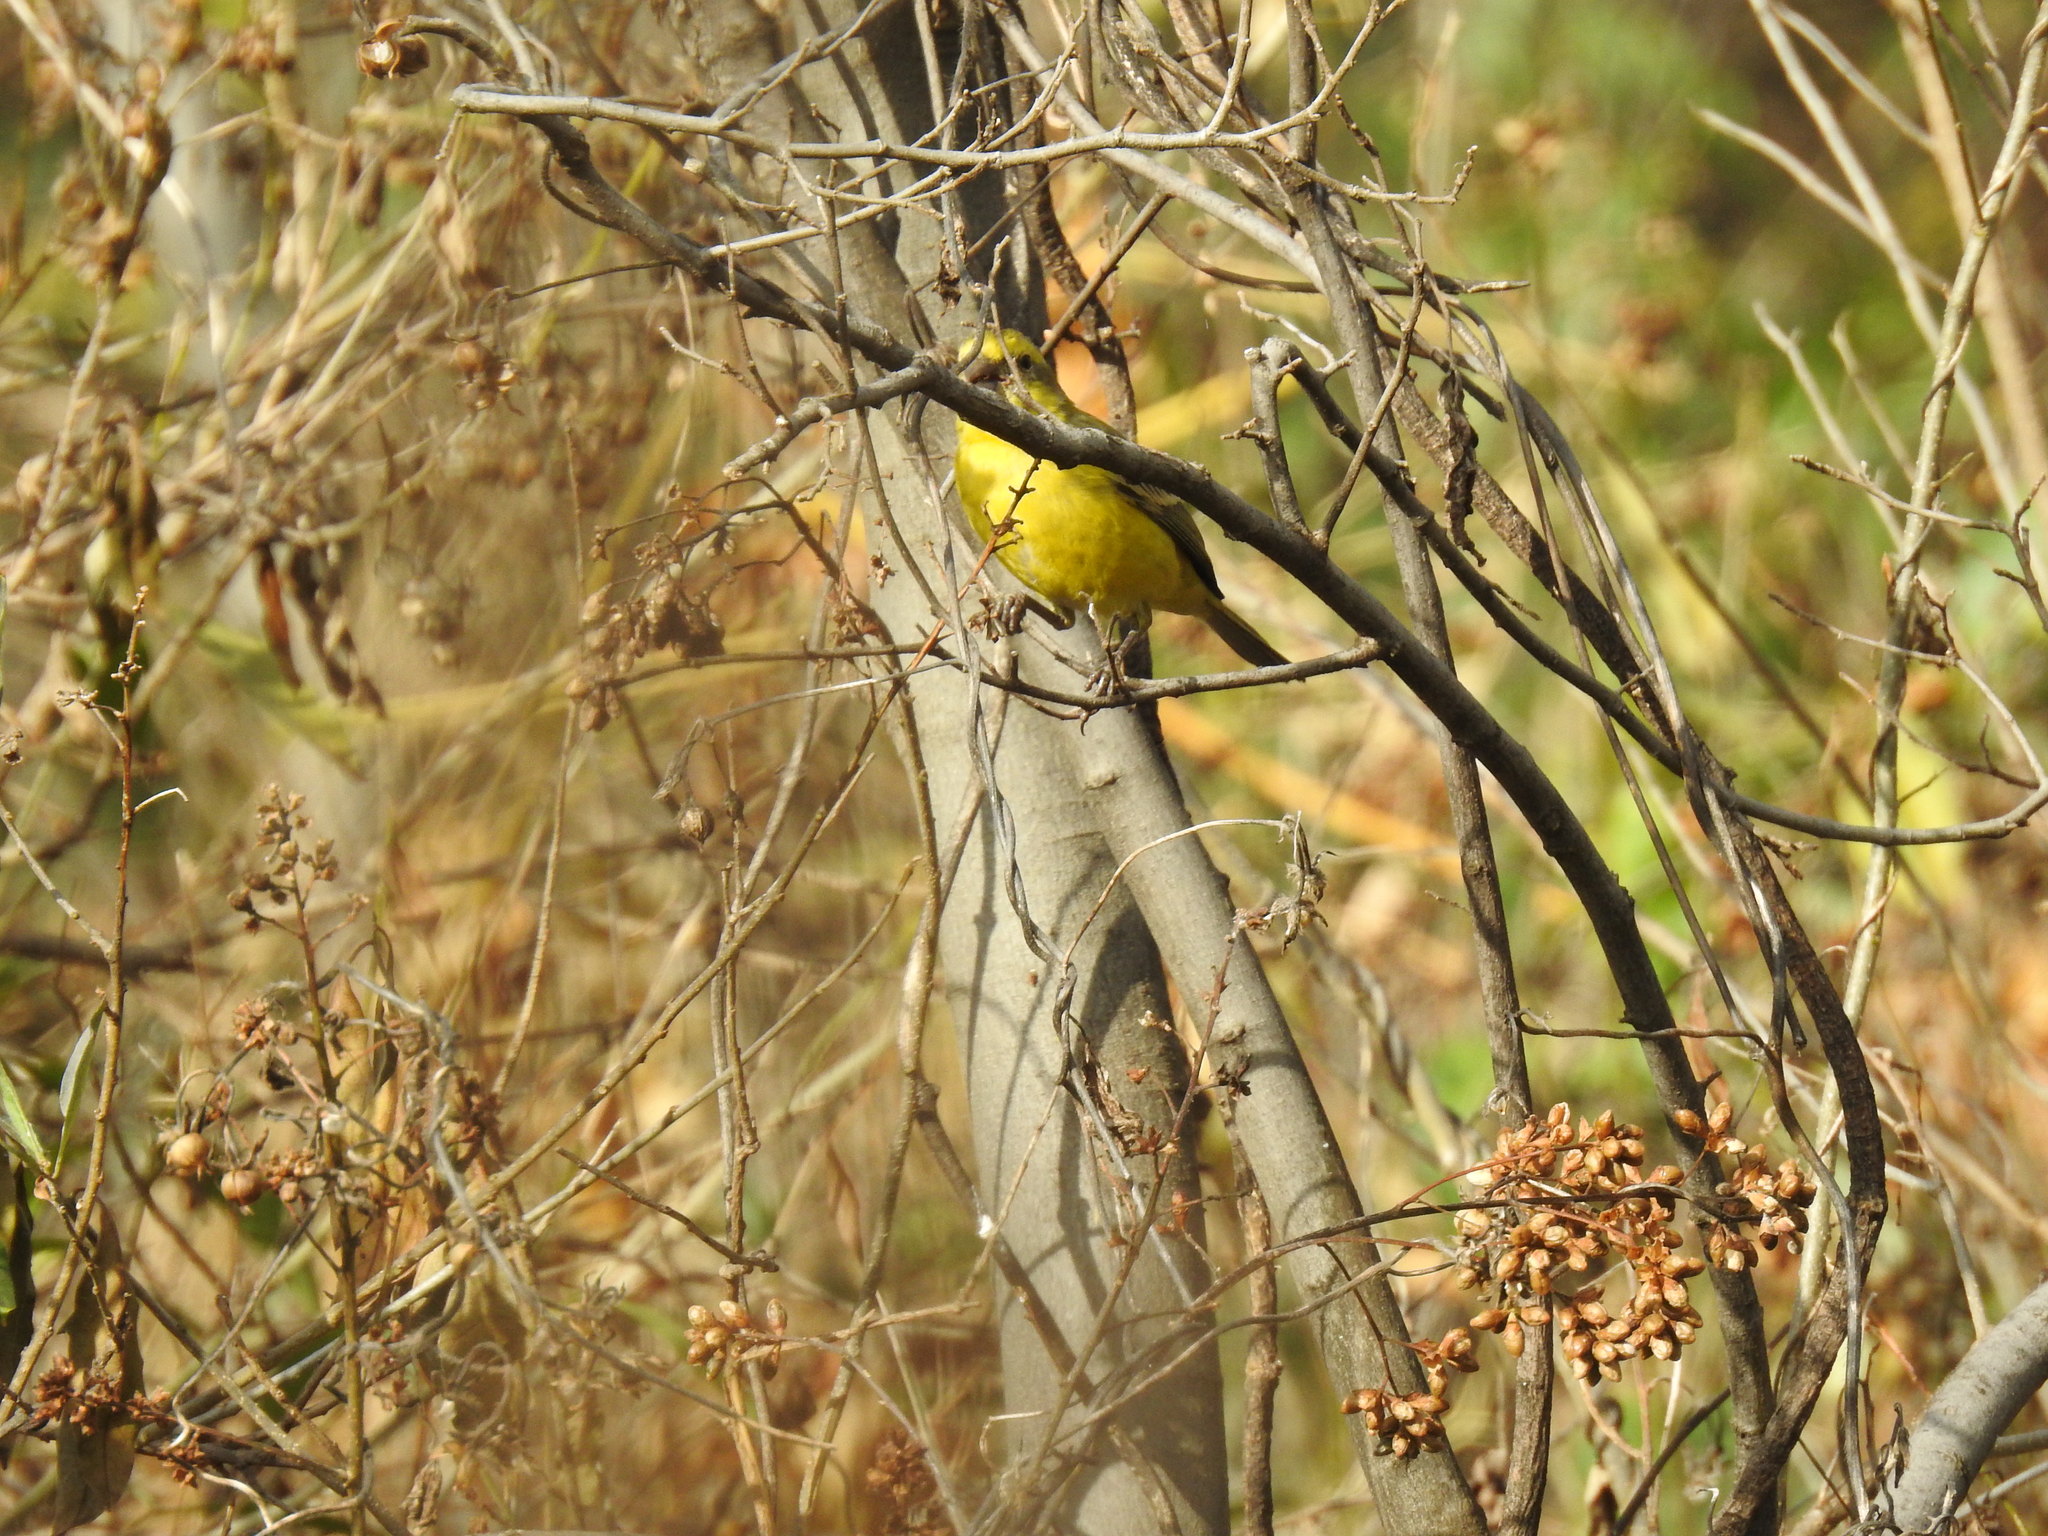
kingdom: Animalia
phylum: Chordata
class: Aves
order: Passeriformes
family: Fringillidae
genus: Crithagra
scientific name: Crithagra mozambica
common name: Yellow-fronted canary
